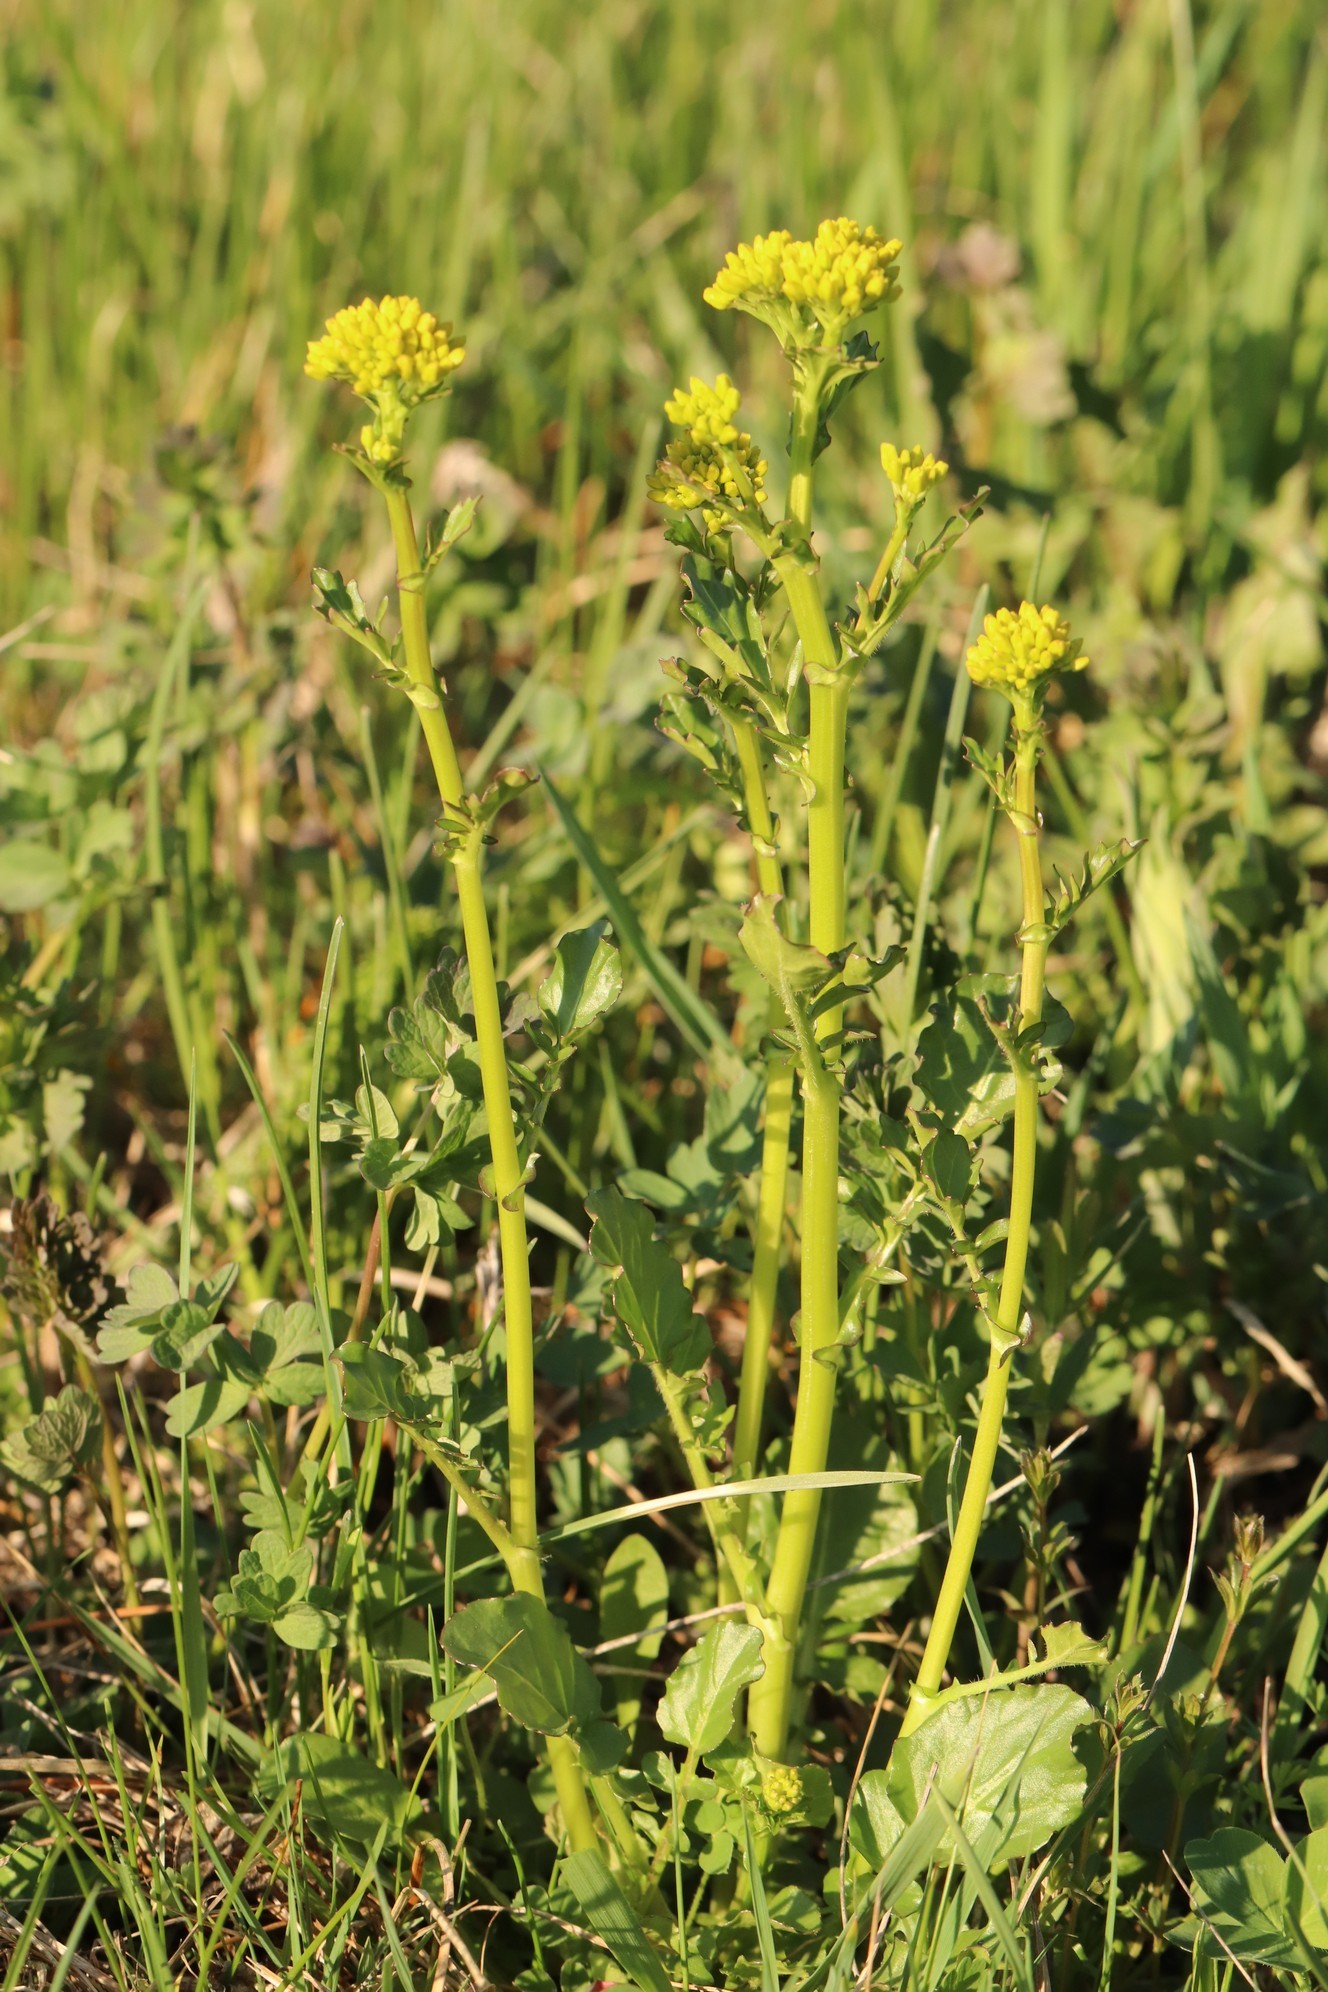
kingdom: Plantae
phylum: Tracheophyta
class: Magnoliopsida
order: Brassicales
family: Brassicaceae
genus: Barbarea
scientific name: Barbarea vulgaris
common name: Cressy-greens
